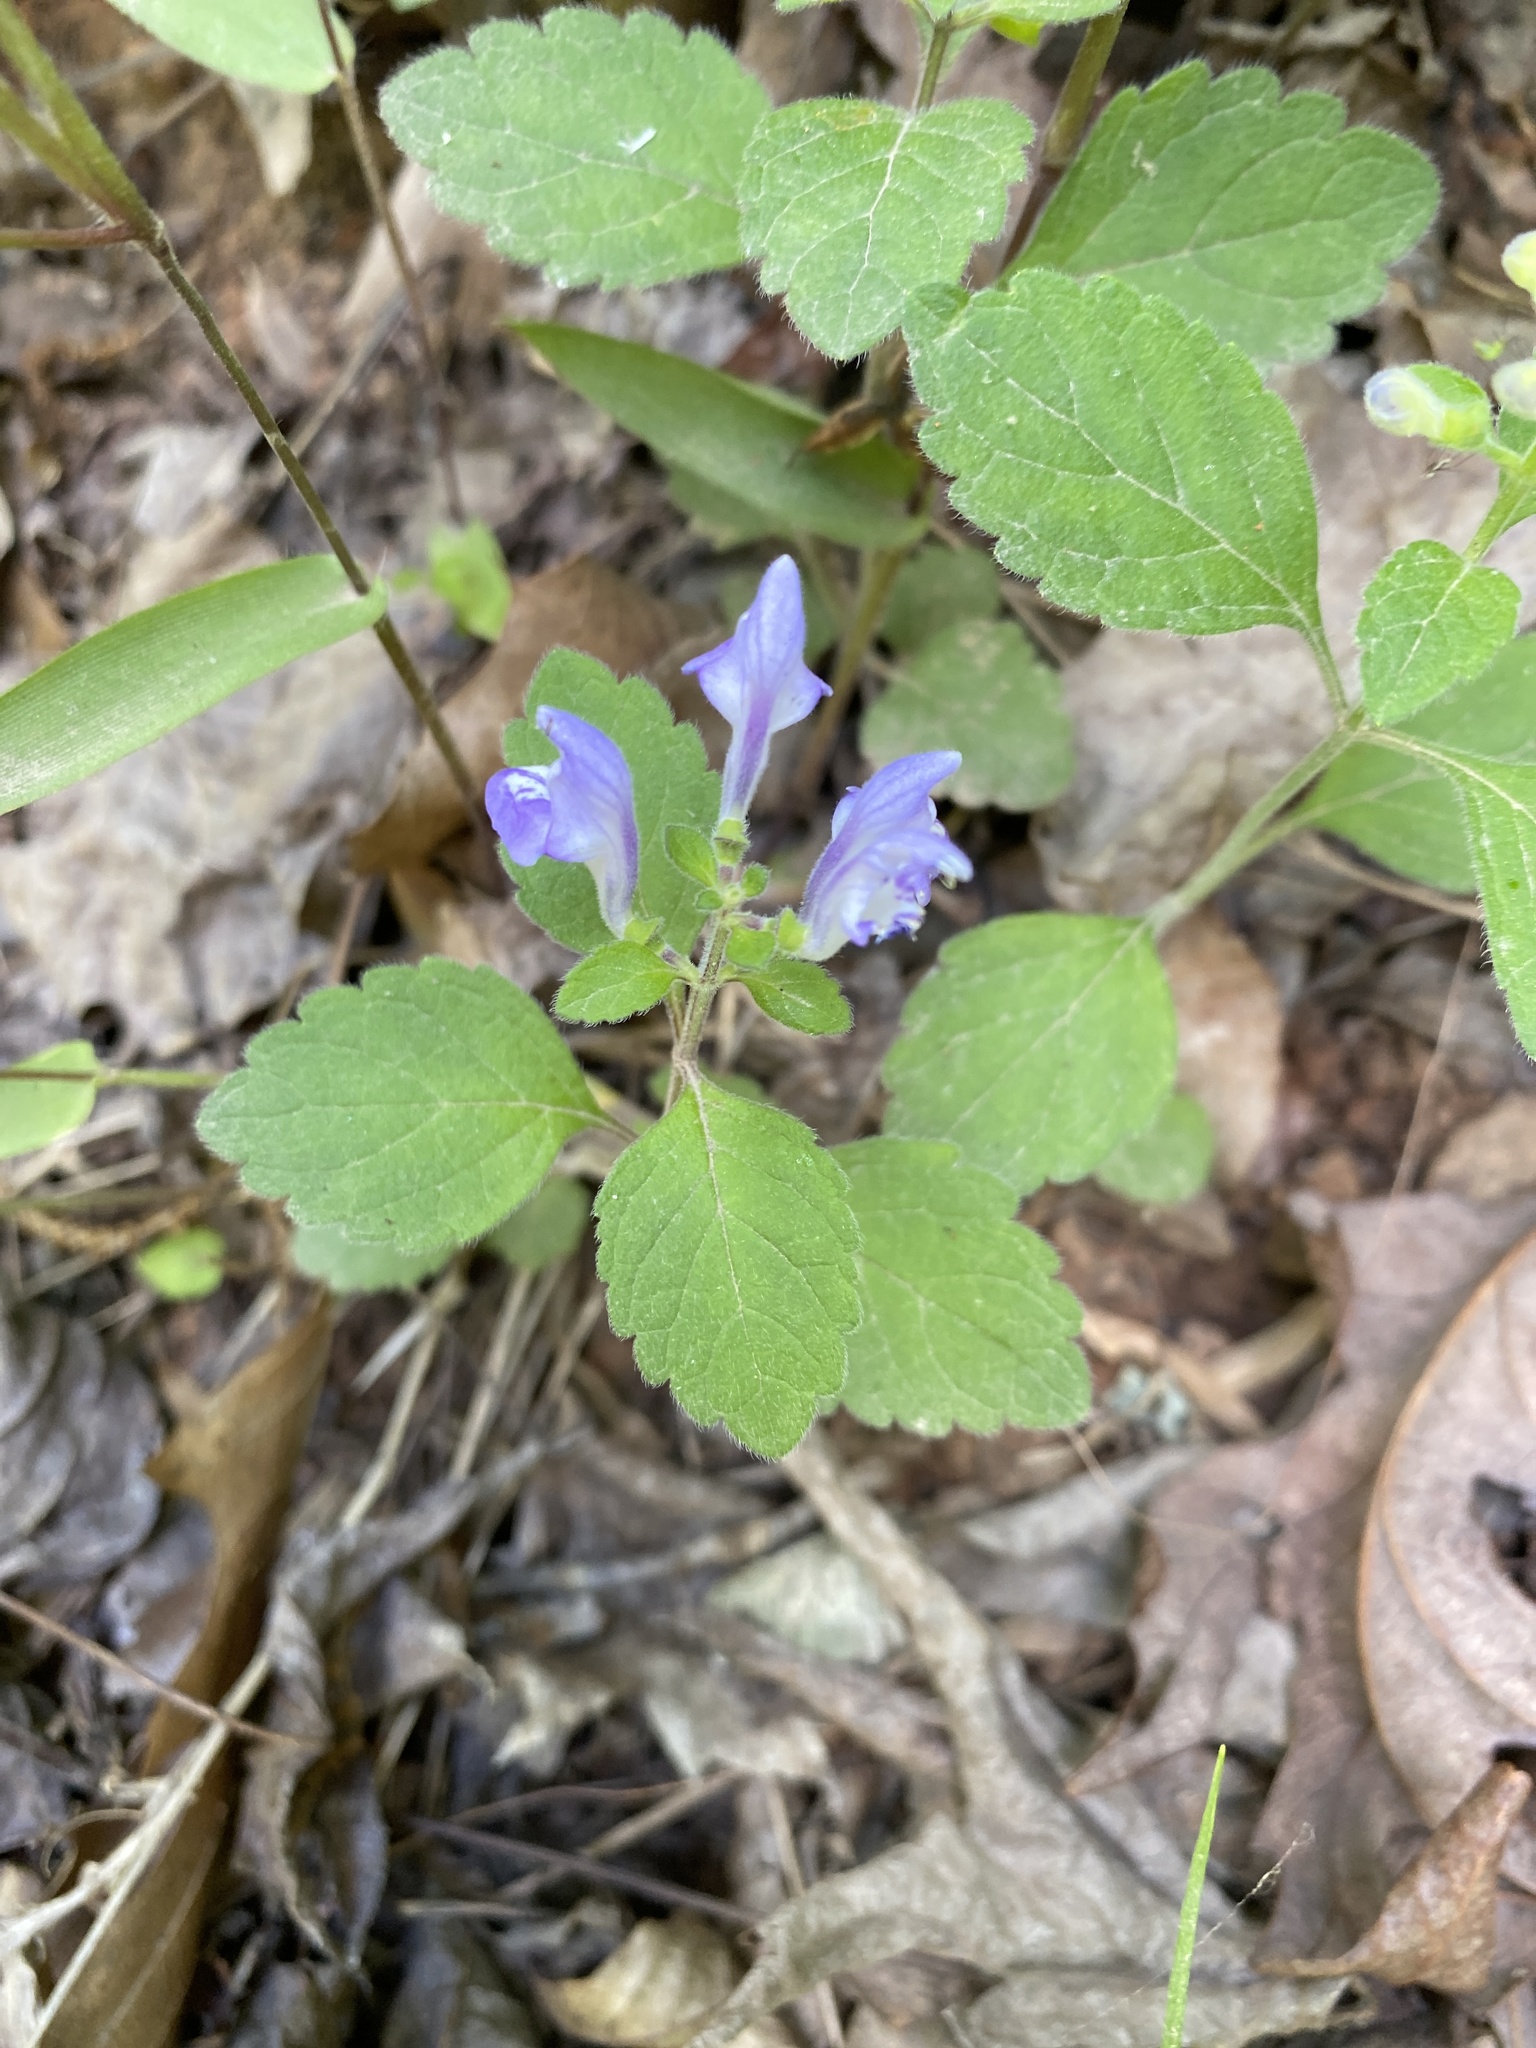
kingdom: Plantae
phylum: Tracheophyta
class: Magnoliopsida
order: Lamiales
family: Lamiaceae
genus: Scutellaria
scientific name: Scutellaria elliptica
